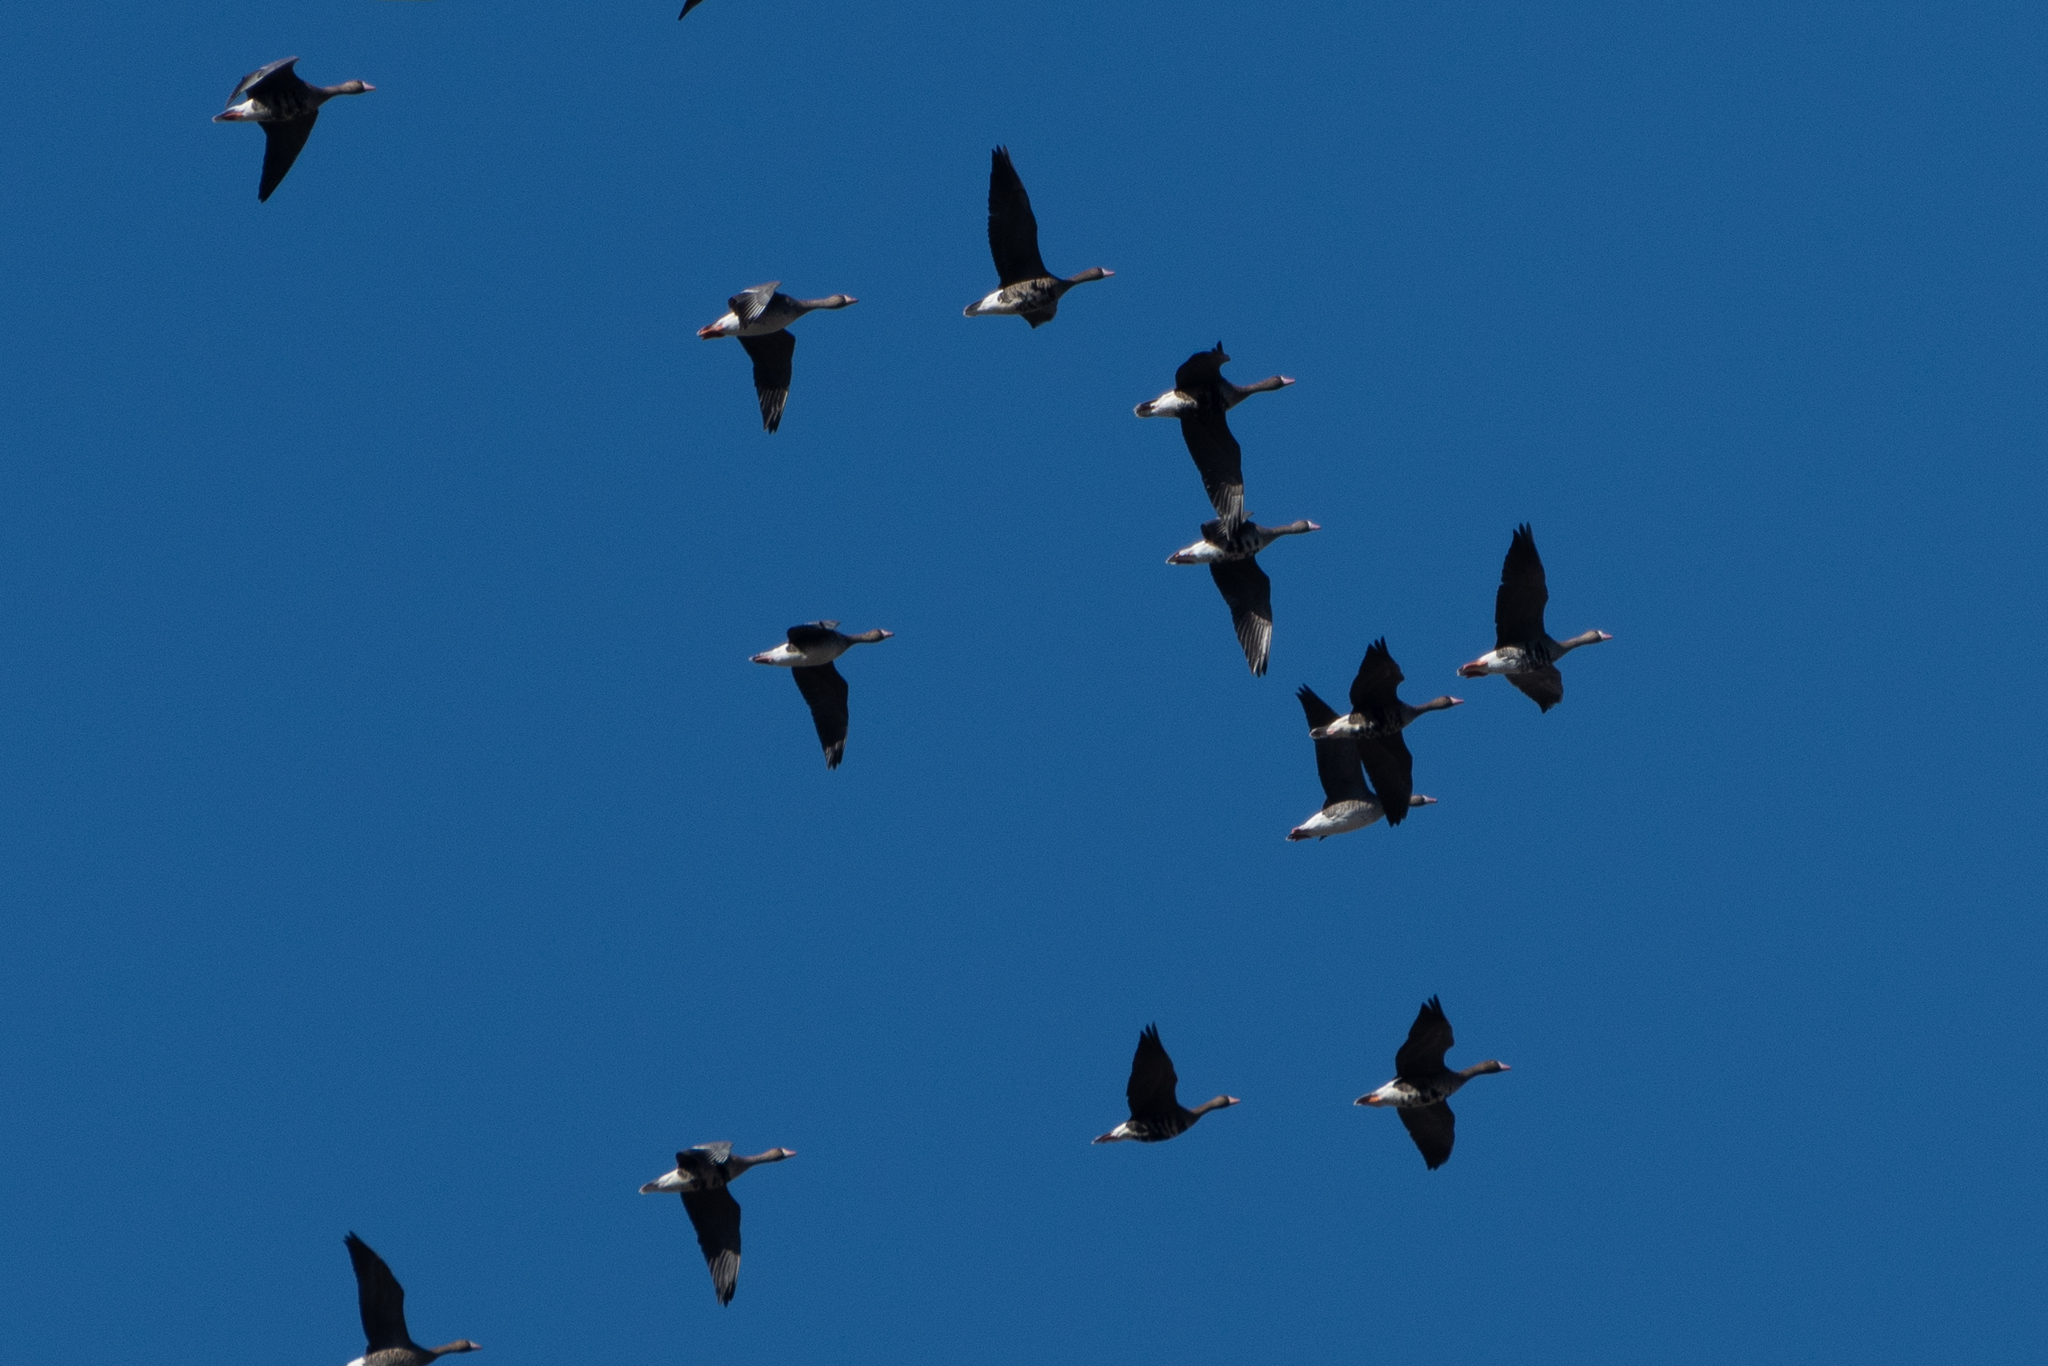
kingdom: Animalia
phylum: Chordata
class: Aves
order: Anseriformes
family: Anatidae
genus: Anser
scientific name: Anser albifrons
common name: Greater white-fronted goose
